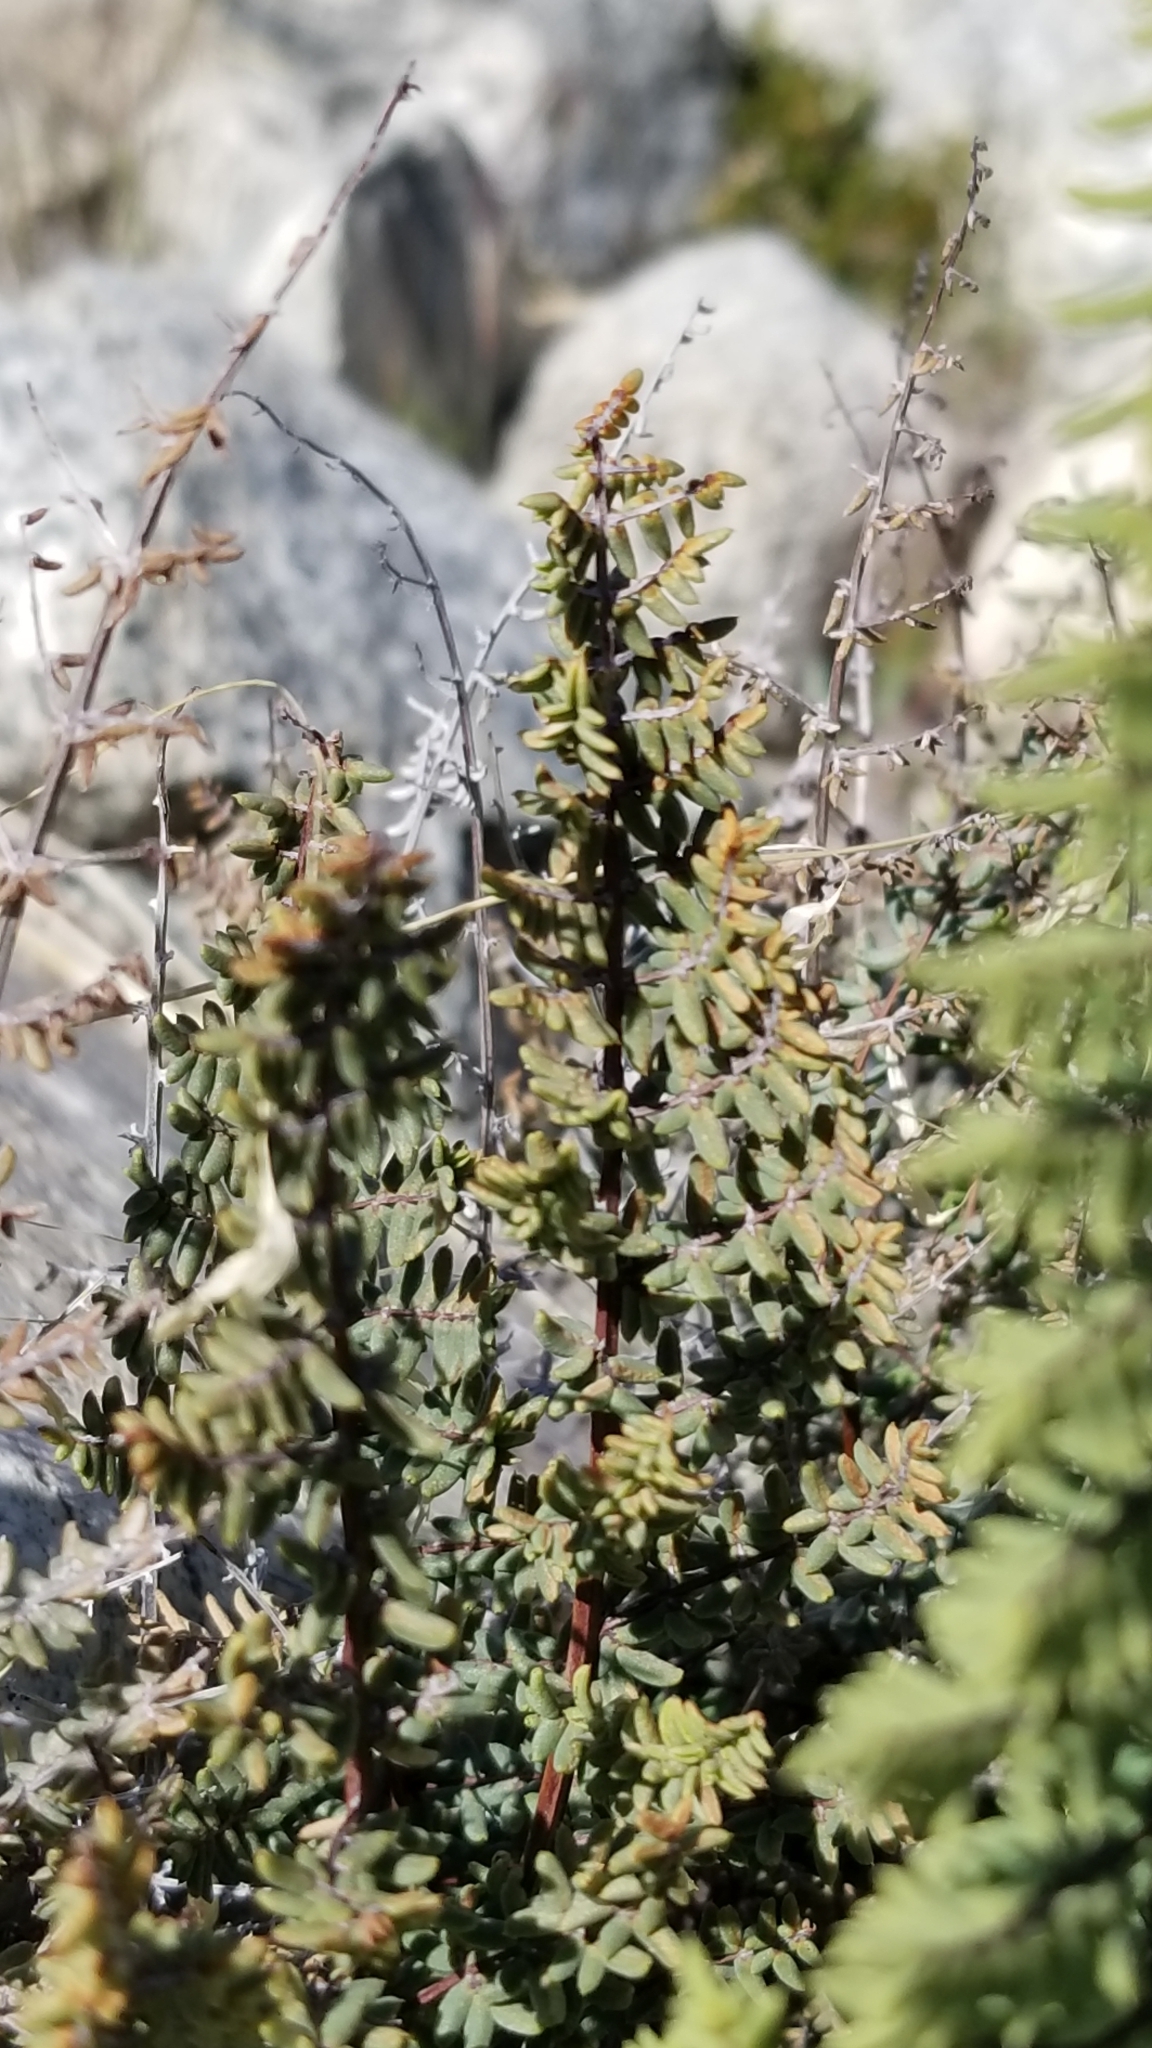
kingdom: Plantae
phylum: Tracheophyta
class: Polypodiopsida
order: Polypodiales
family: Pteridaceae
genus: Pellaea
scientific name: Pellaea mucronata
